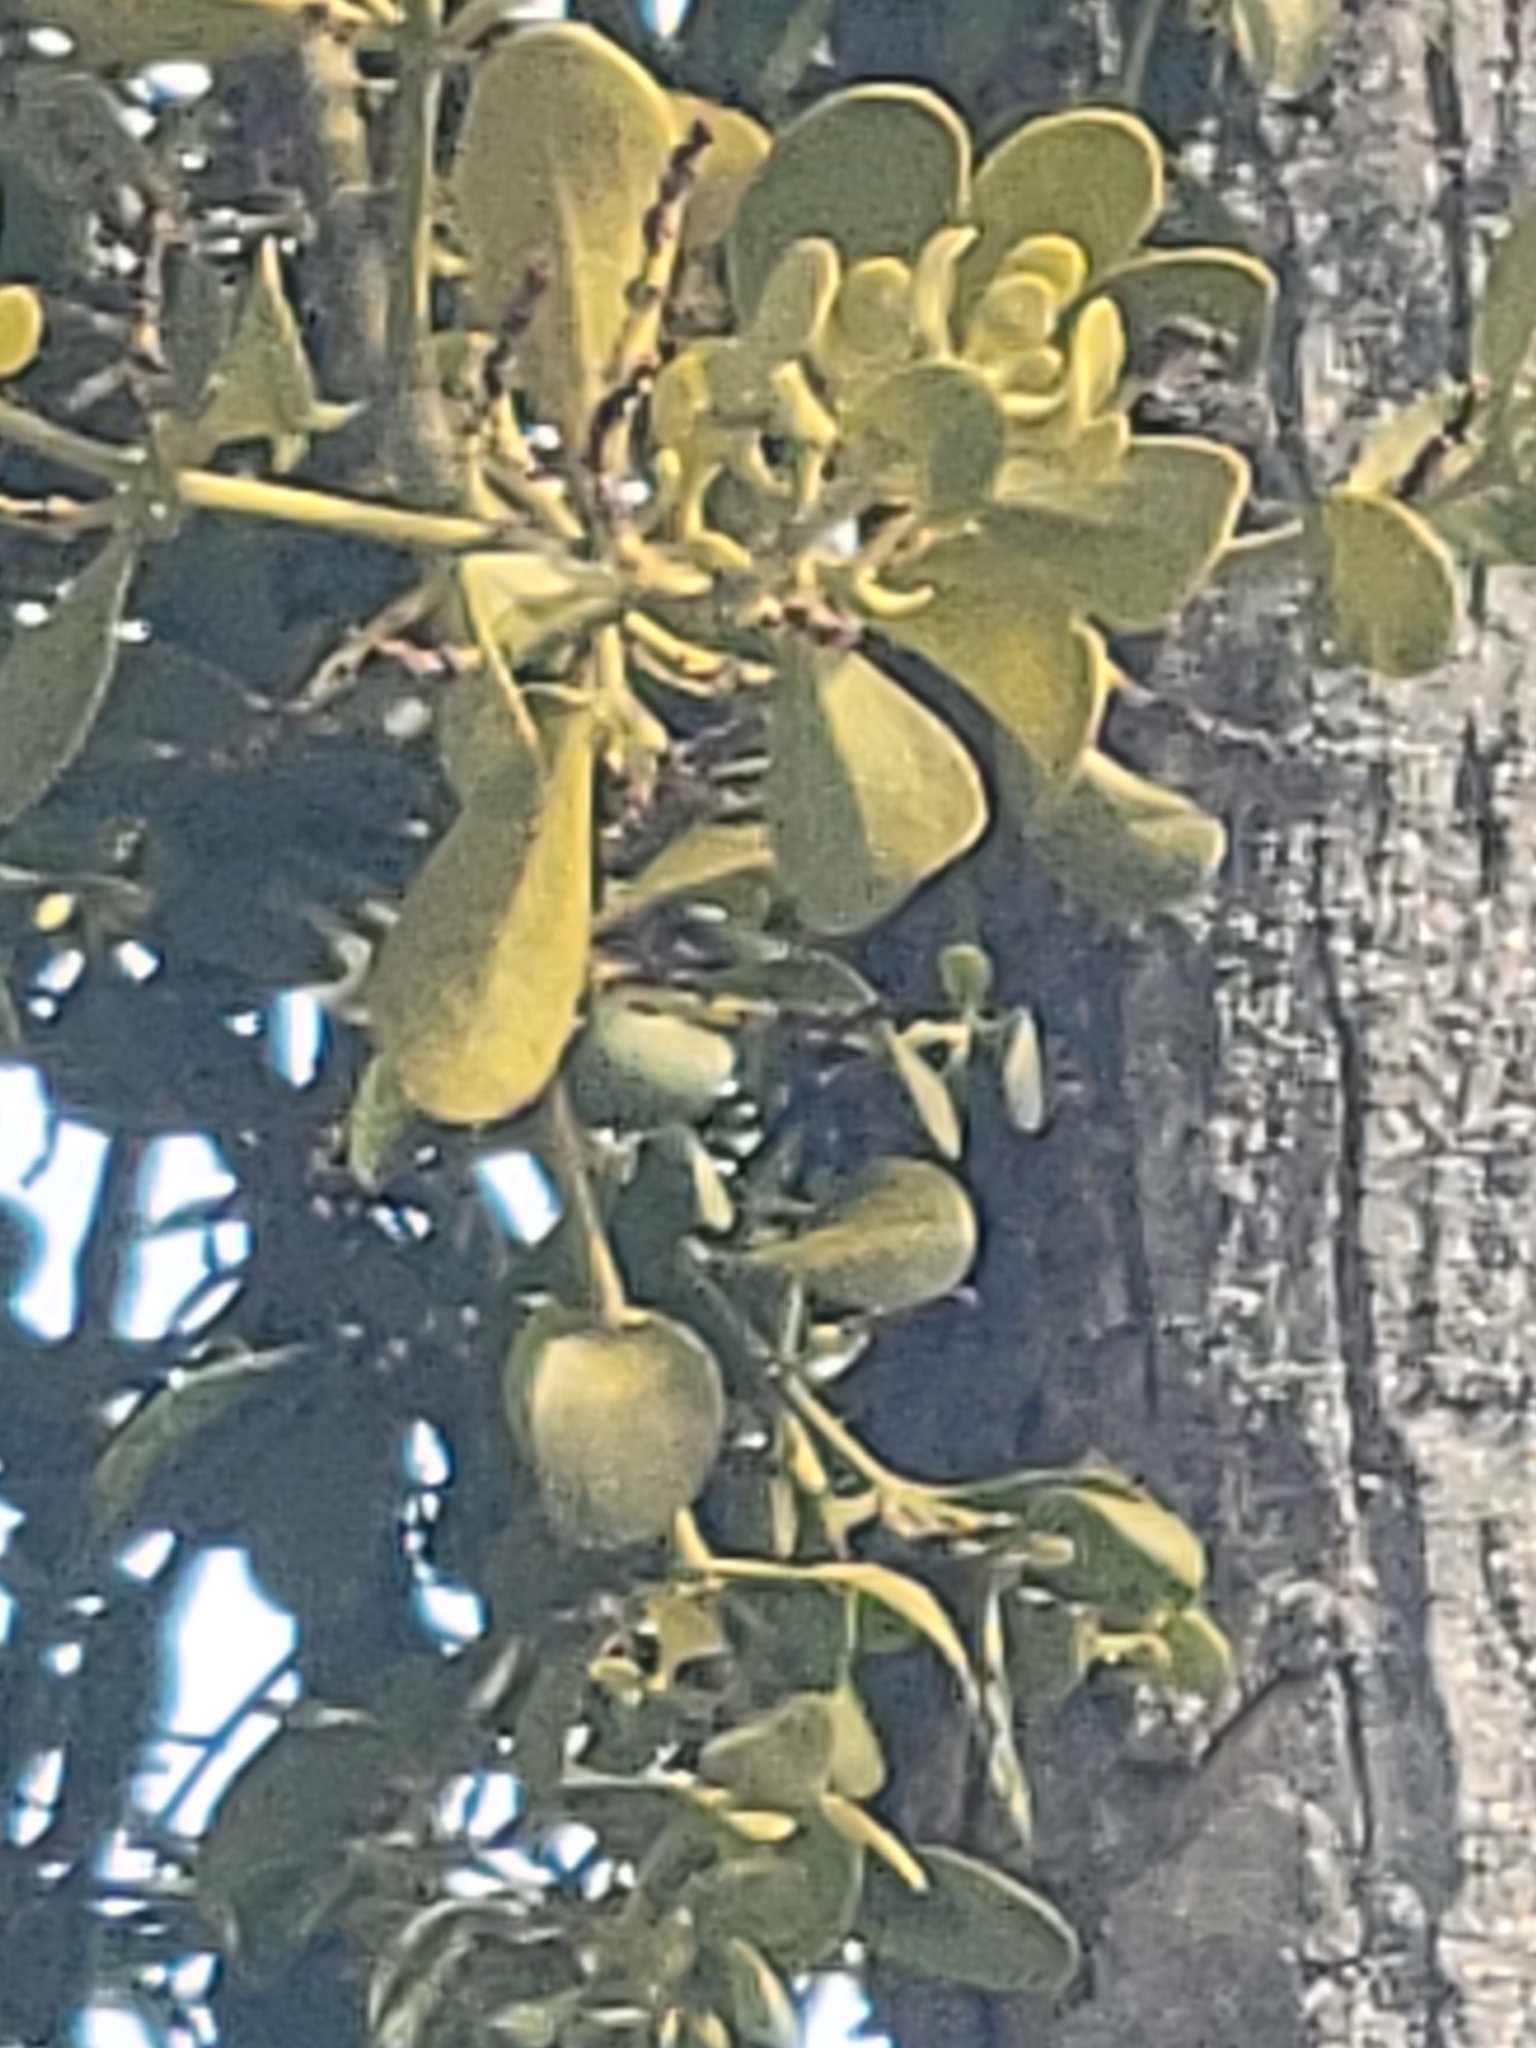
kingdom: Plantae
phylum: Tracheophyta
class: Magnoliopsida
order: Santalales
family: Viscaceae
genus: Phoradendron
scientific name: Phoradendron leucarpum
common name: Pacific mistletoe
